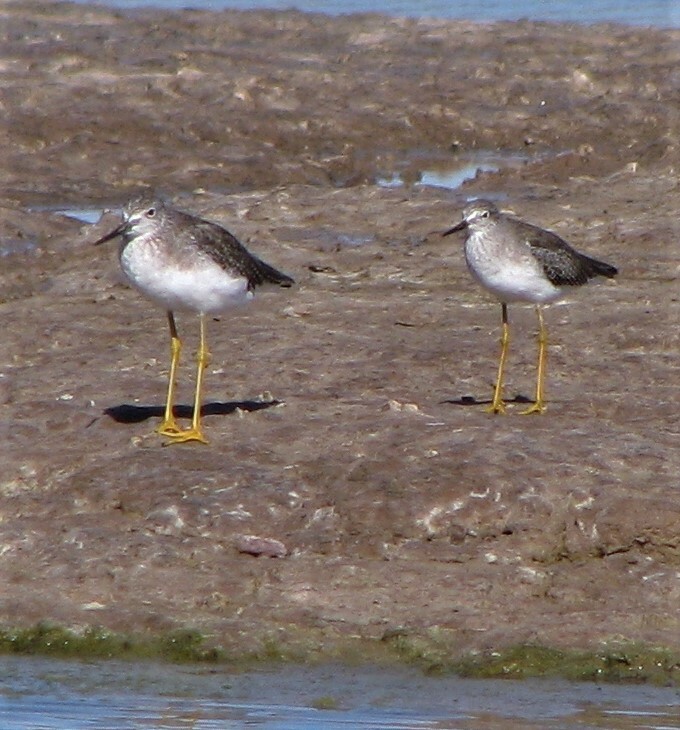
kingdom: Animalia
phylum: Chordata
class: Aves
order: Charadriiformes
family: Scolopacidae
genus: Tringa
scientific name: Tringa flavipes
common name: Lesser yellowlegs
